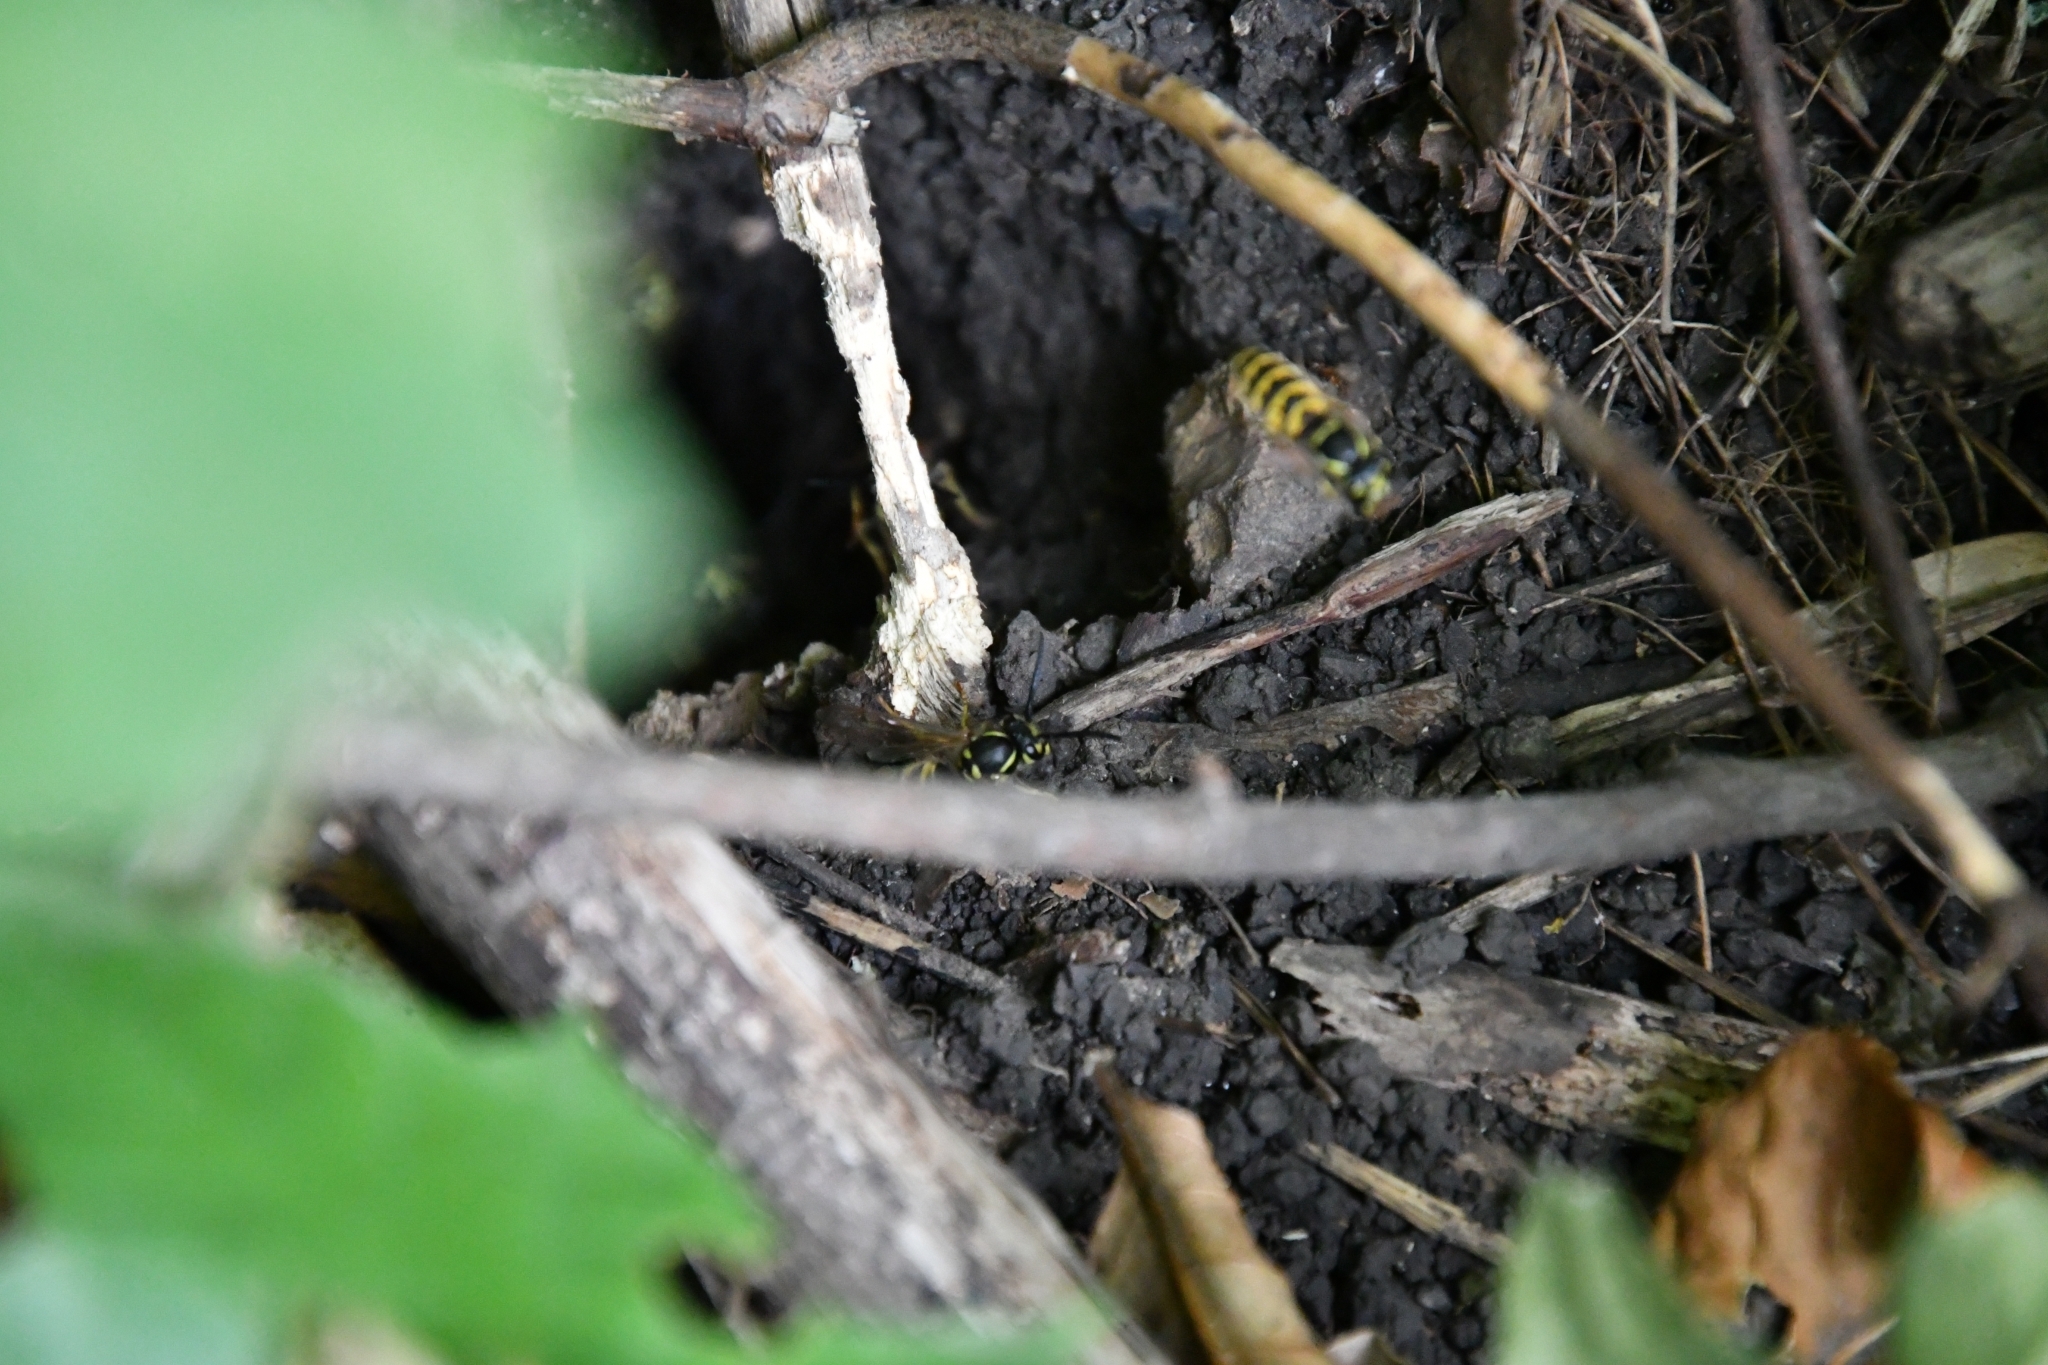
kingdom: Animalia
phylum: Arthropoda
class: Insecta
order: Hymenoptera
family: Vespidae
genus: Vespula
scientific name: Vespula vulgaris
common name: Common wasp
